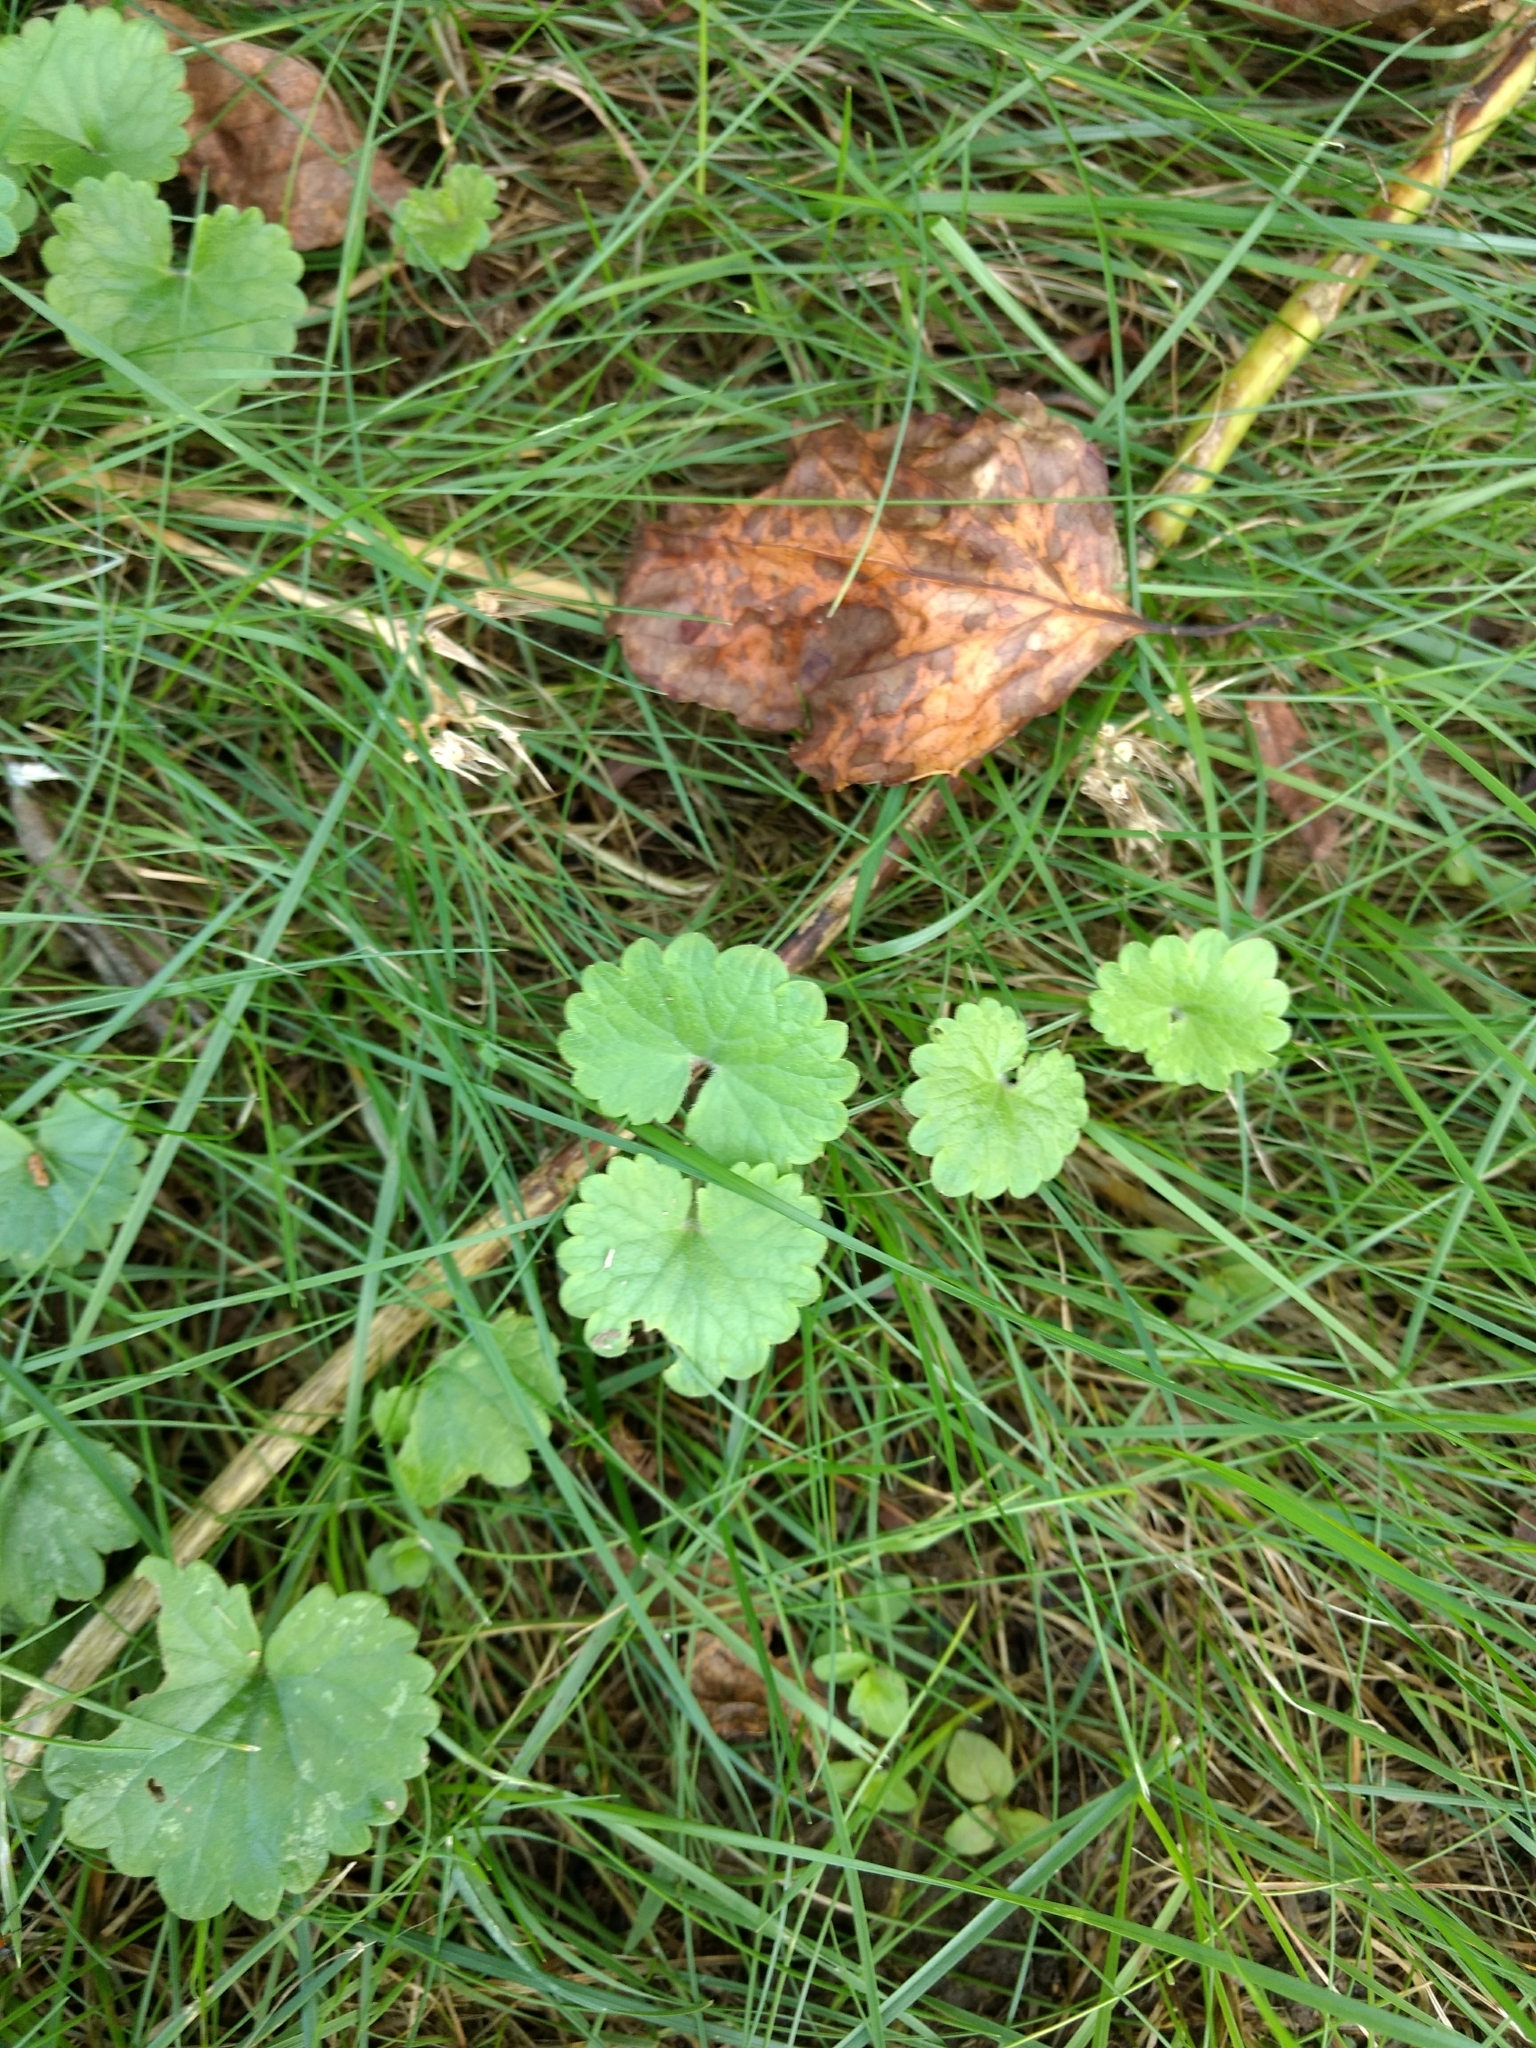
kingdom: Plantae
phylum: Tracheophyta
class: Magnoliopsida
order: Lamiales
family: Lamiaceae
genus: Glechoma
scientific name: Glechoma hederacea
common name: Ground ivy
